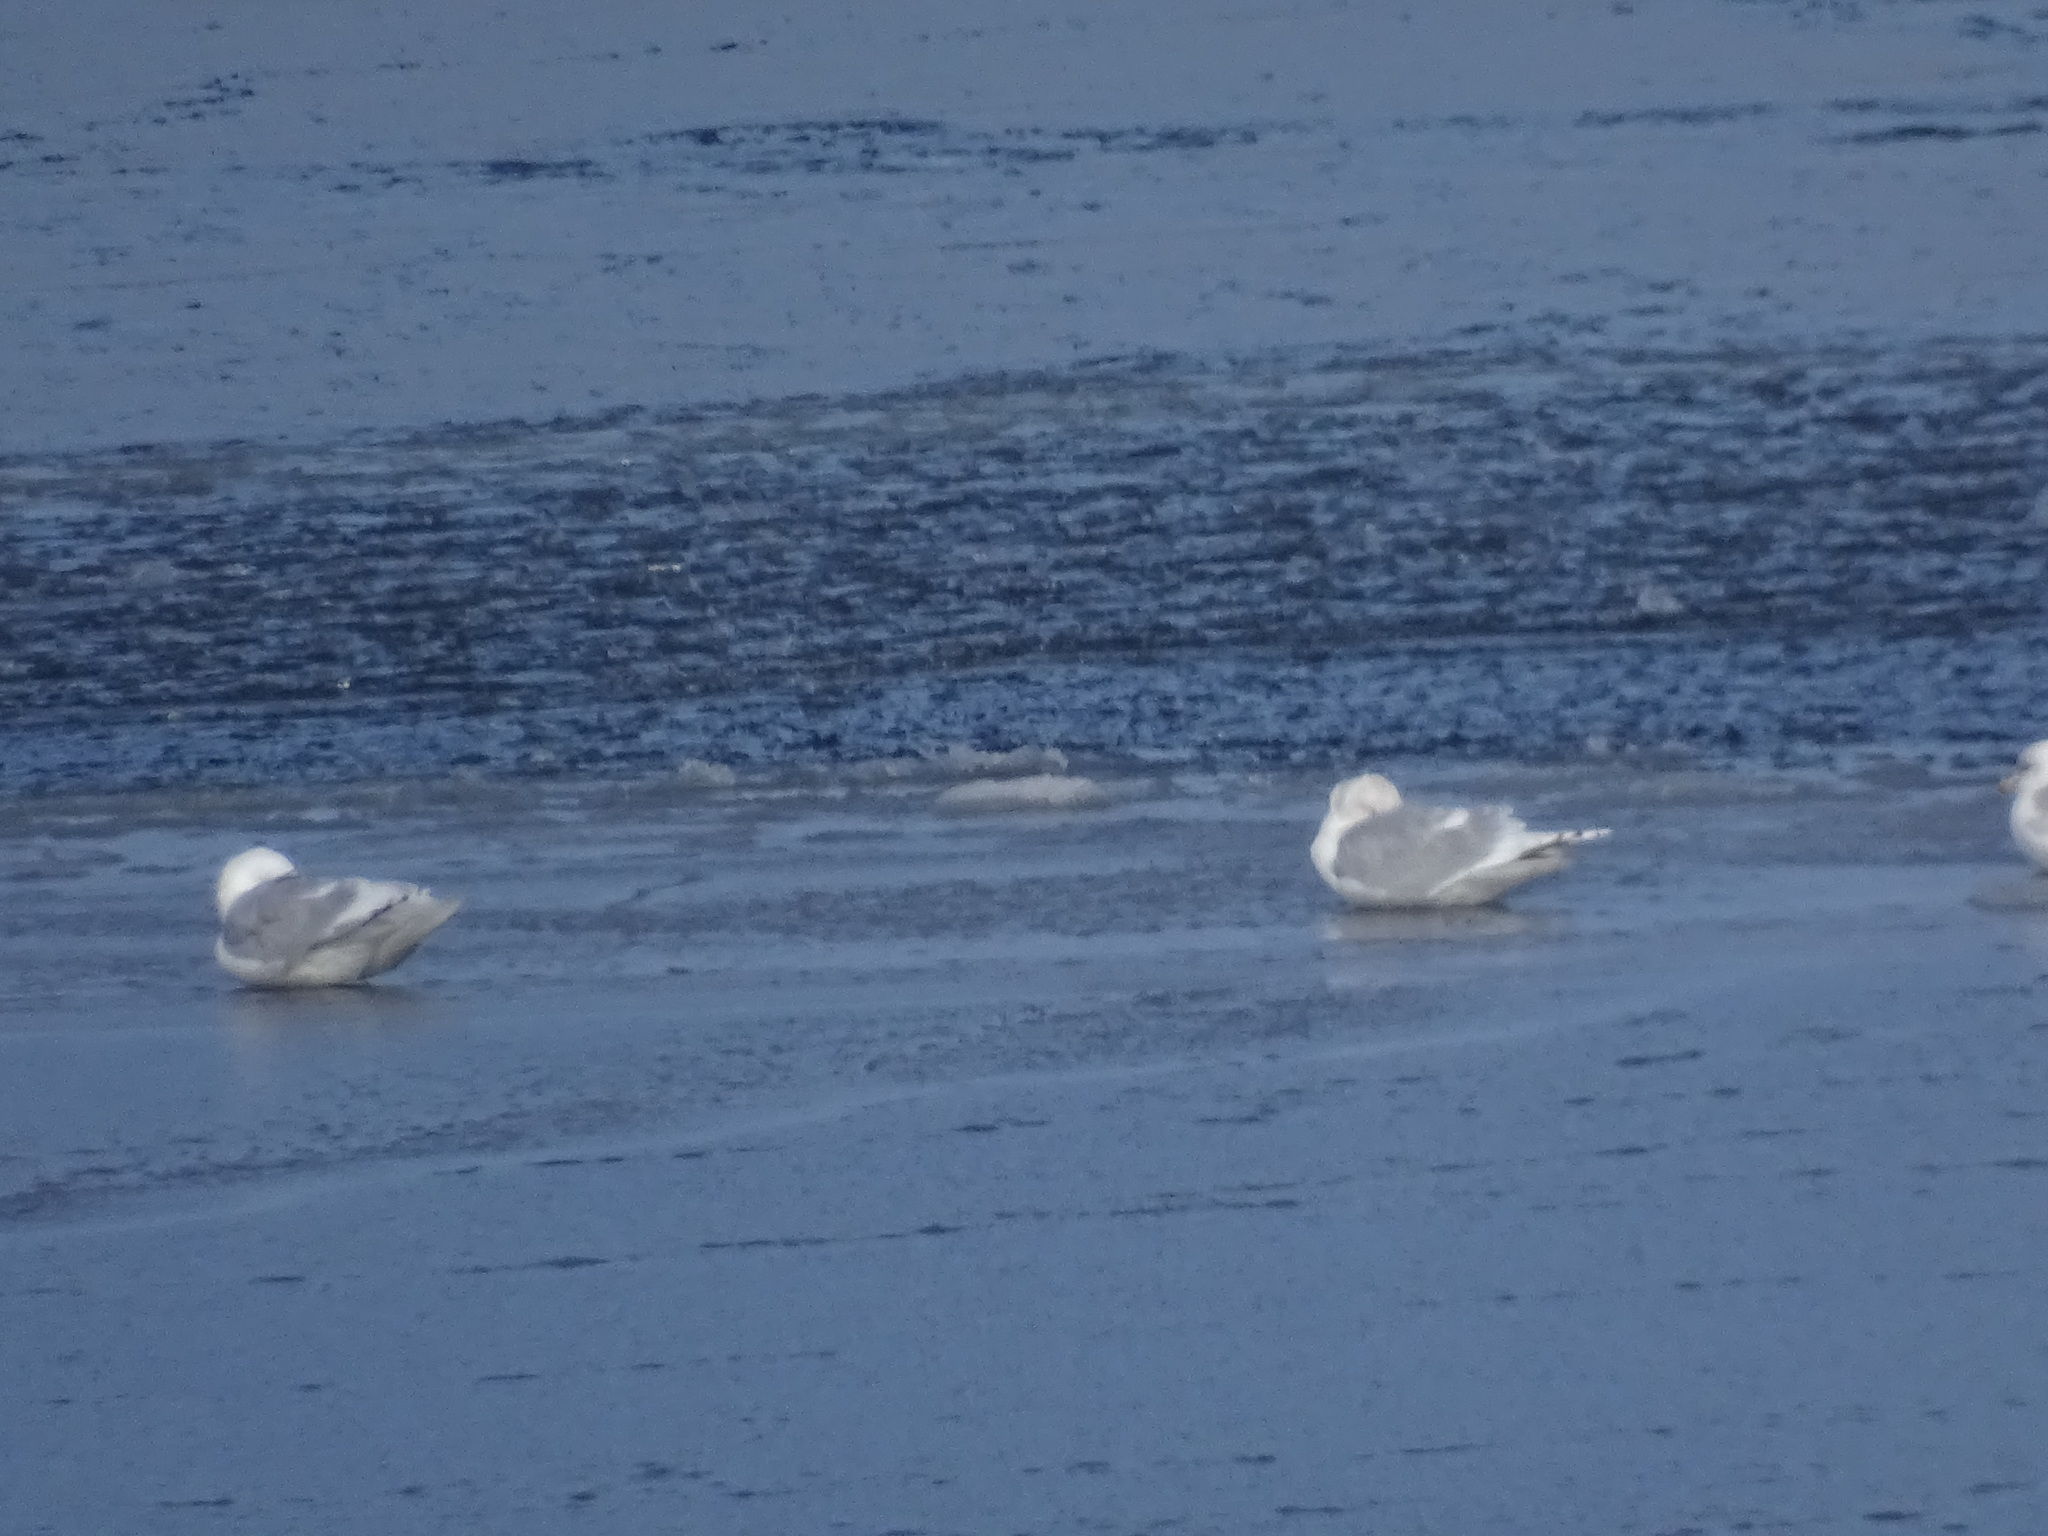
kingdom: Animalia
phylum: Chordata
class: Aves
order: Charadriiformes
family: Laridae
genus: Larus
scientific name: Larus glaucoides
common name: Iceland gull
